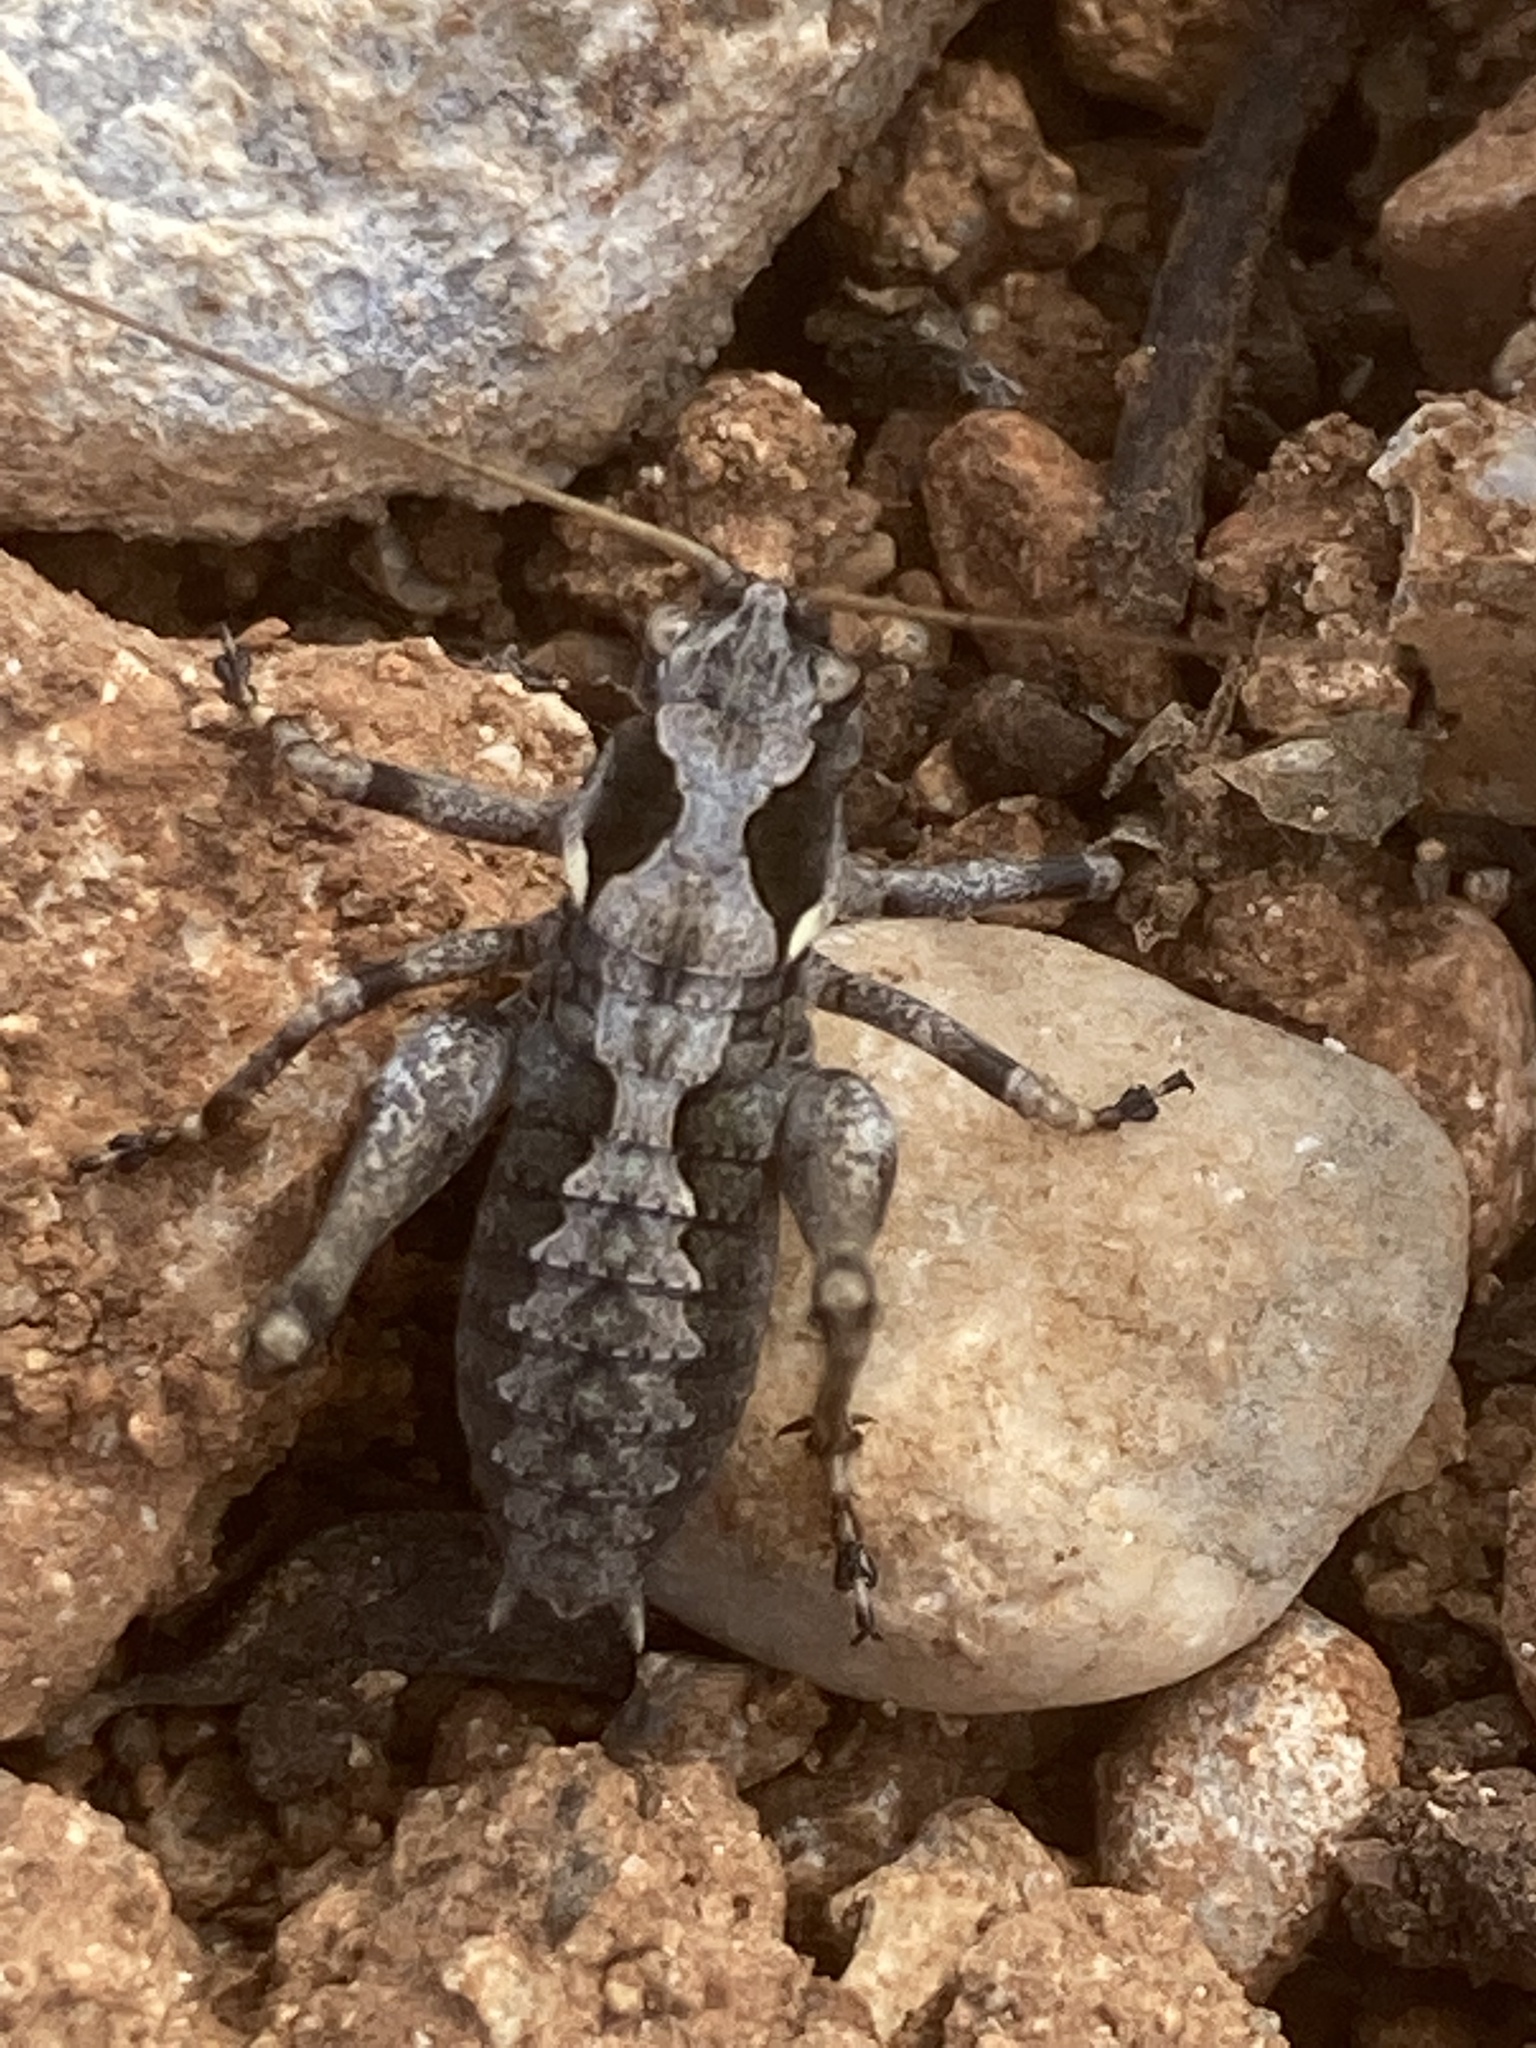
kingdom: Animalia
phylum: Arthropoda
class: Insecta
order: Orthoptera
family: Tettigoniidae
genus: Anadrymadusa
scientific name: Anadrymadusa ornatipennis
